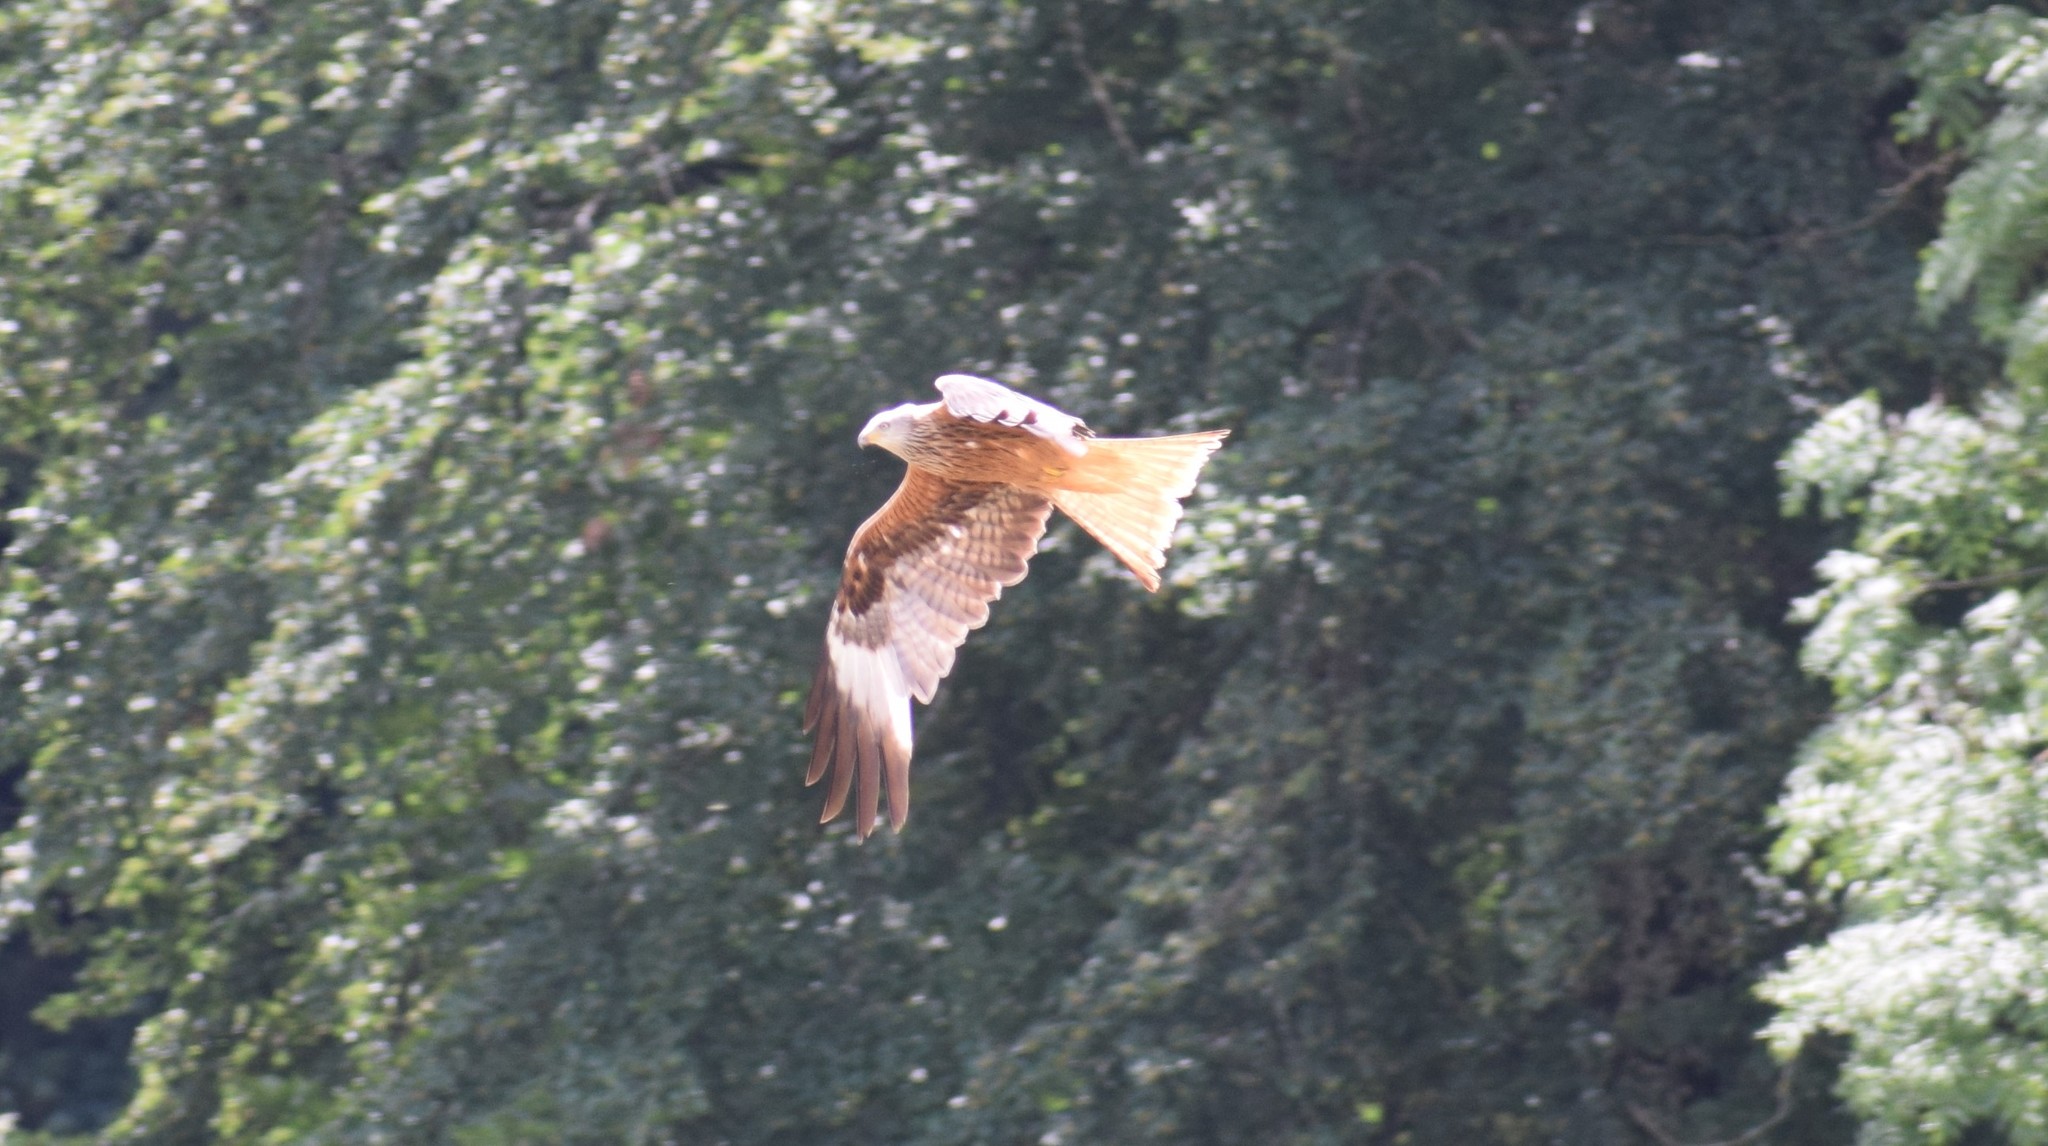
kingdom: Animalia
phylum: Chordata
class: Aves
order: Accipitriformes
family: Accipitridae
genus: Milvus
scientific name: Milvus milvus
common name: Red kite
